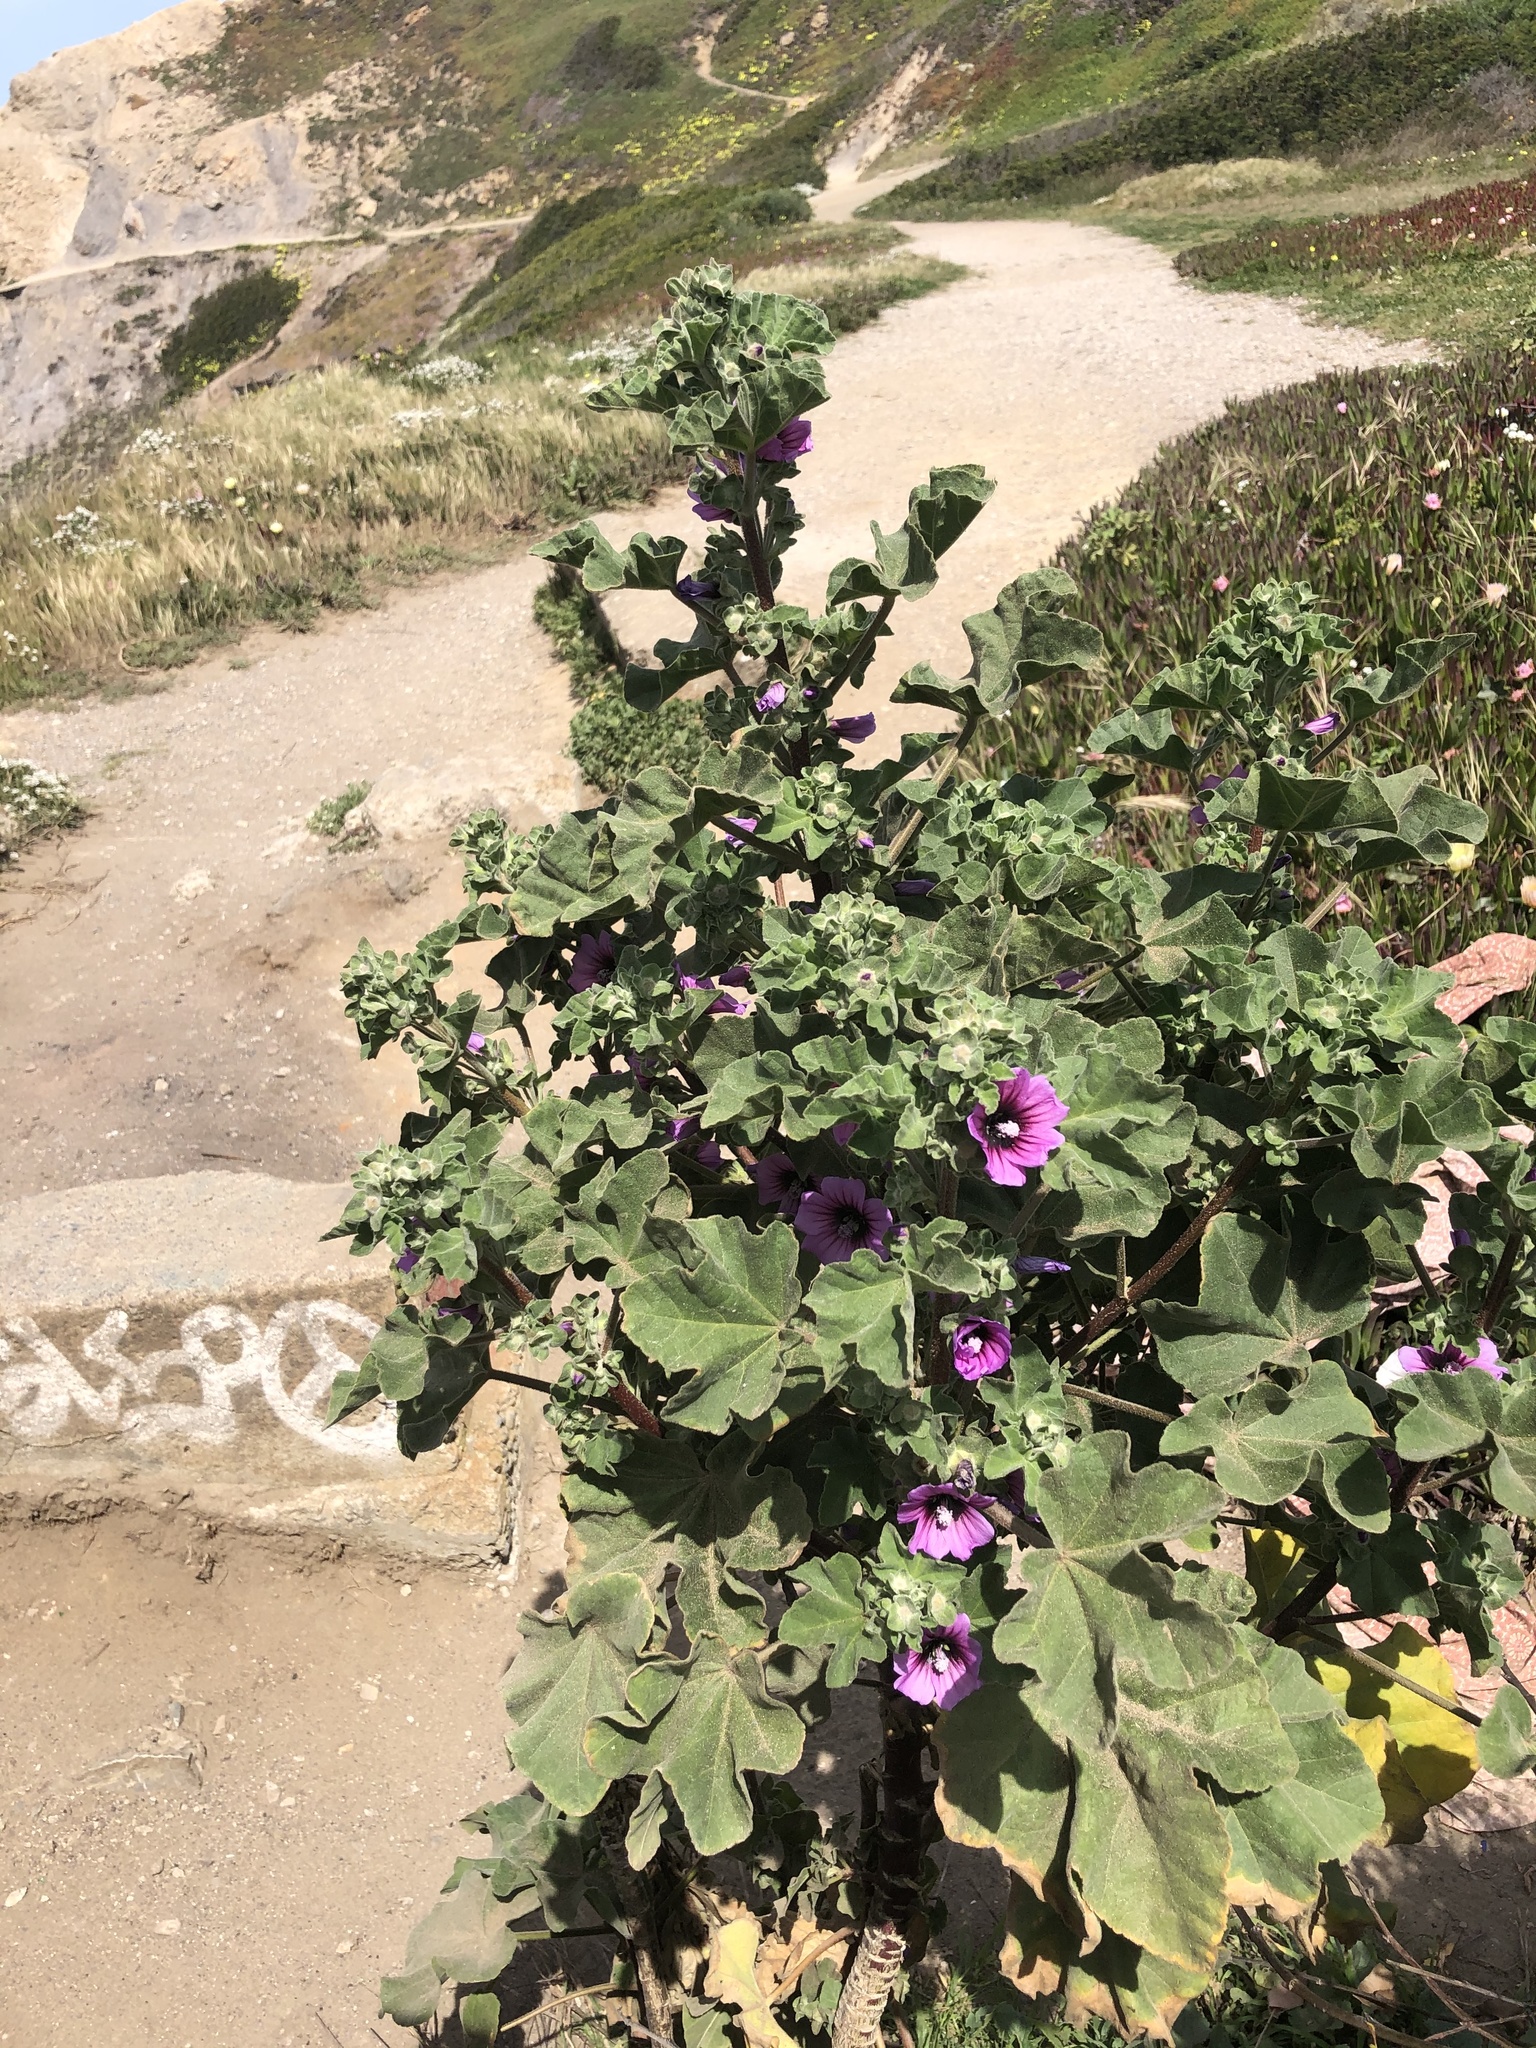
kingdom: Plantae
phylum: Tracheophyta
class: Magnoliopsida
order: Malvales
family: Malvaceae
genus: Malva
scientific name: Malva arborea
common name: Tree mallow
